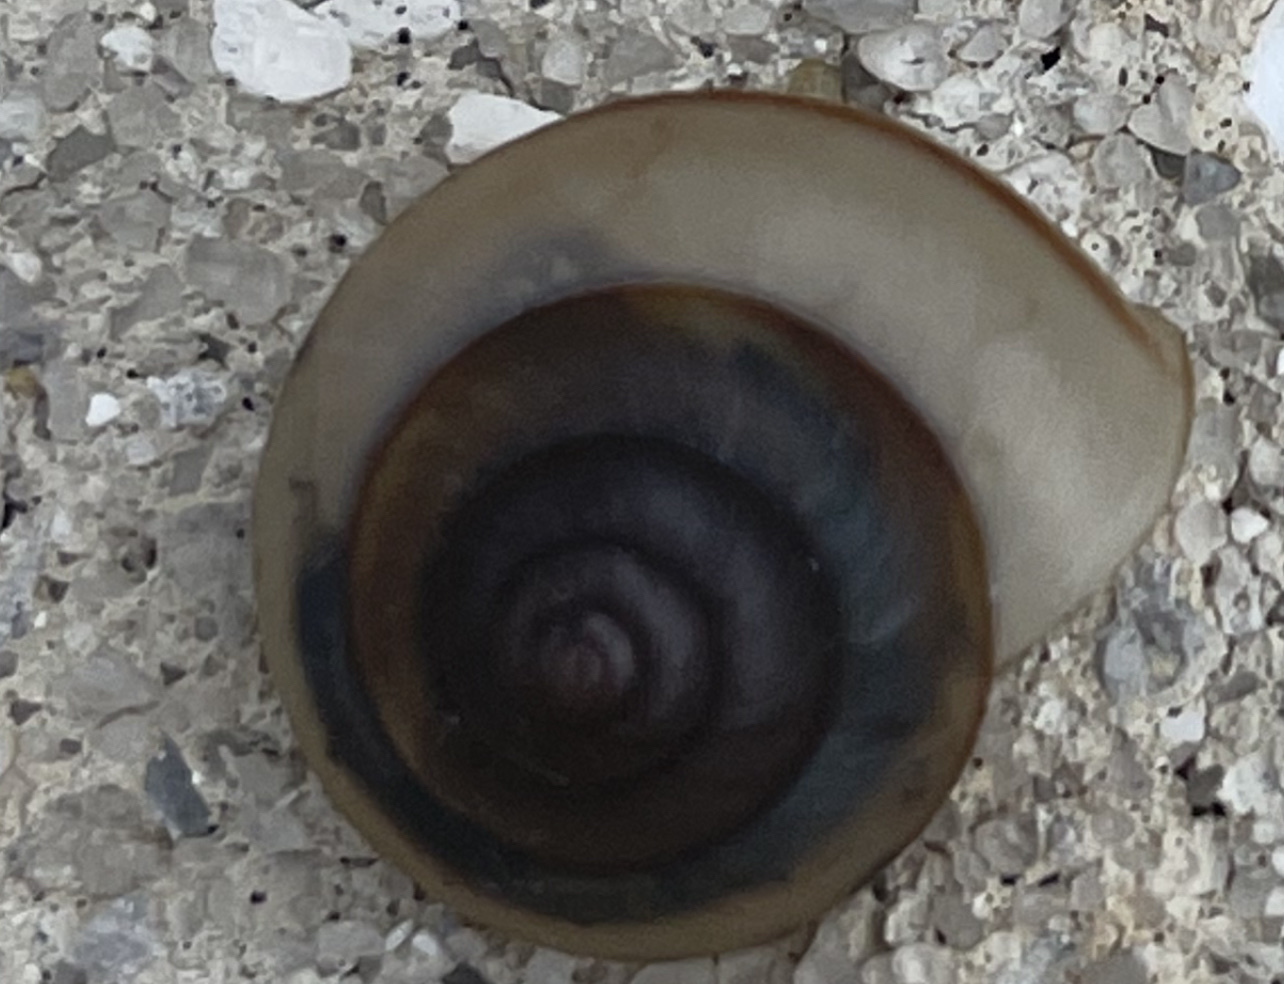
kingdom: Animalia
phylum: Mollusca
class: Gastropoda
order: Stylommatophora
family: Camaenidae
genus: Bradybaena
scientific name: Bradybaena similaris
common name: Asian trampsnail
